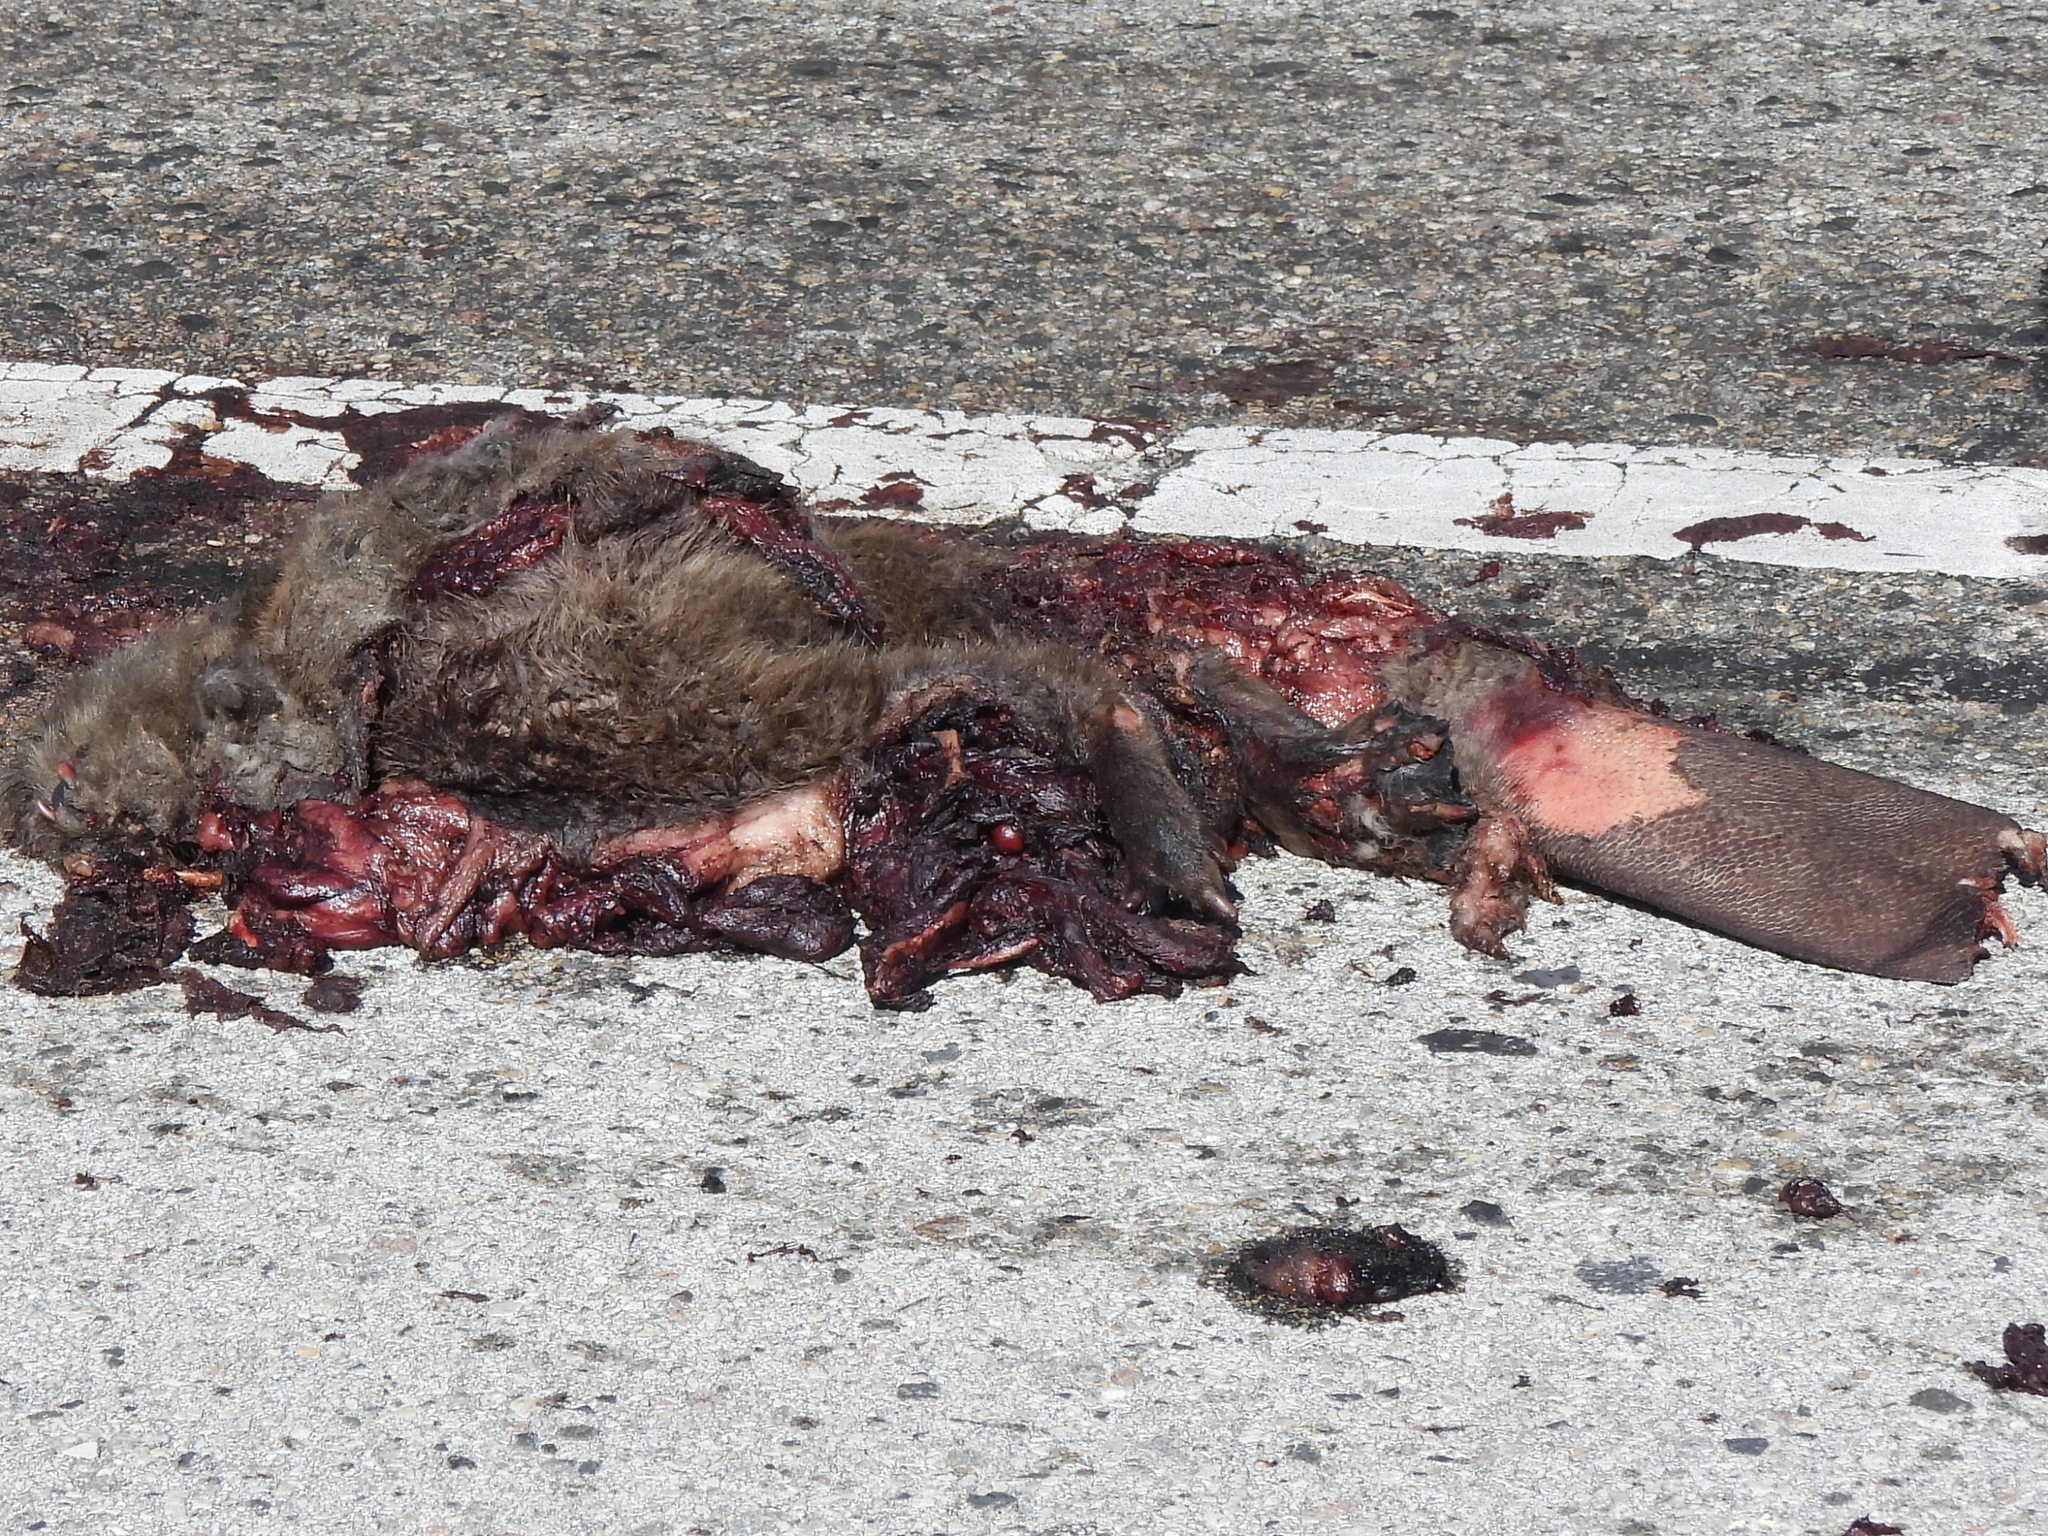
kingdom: Animalia
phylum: Chordata
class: Mammalia
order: Rodentia
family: Castoridae
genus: Castor
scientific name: Castor canadensis
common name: American beaver
